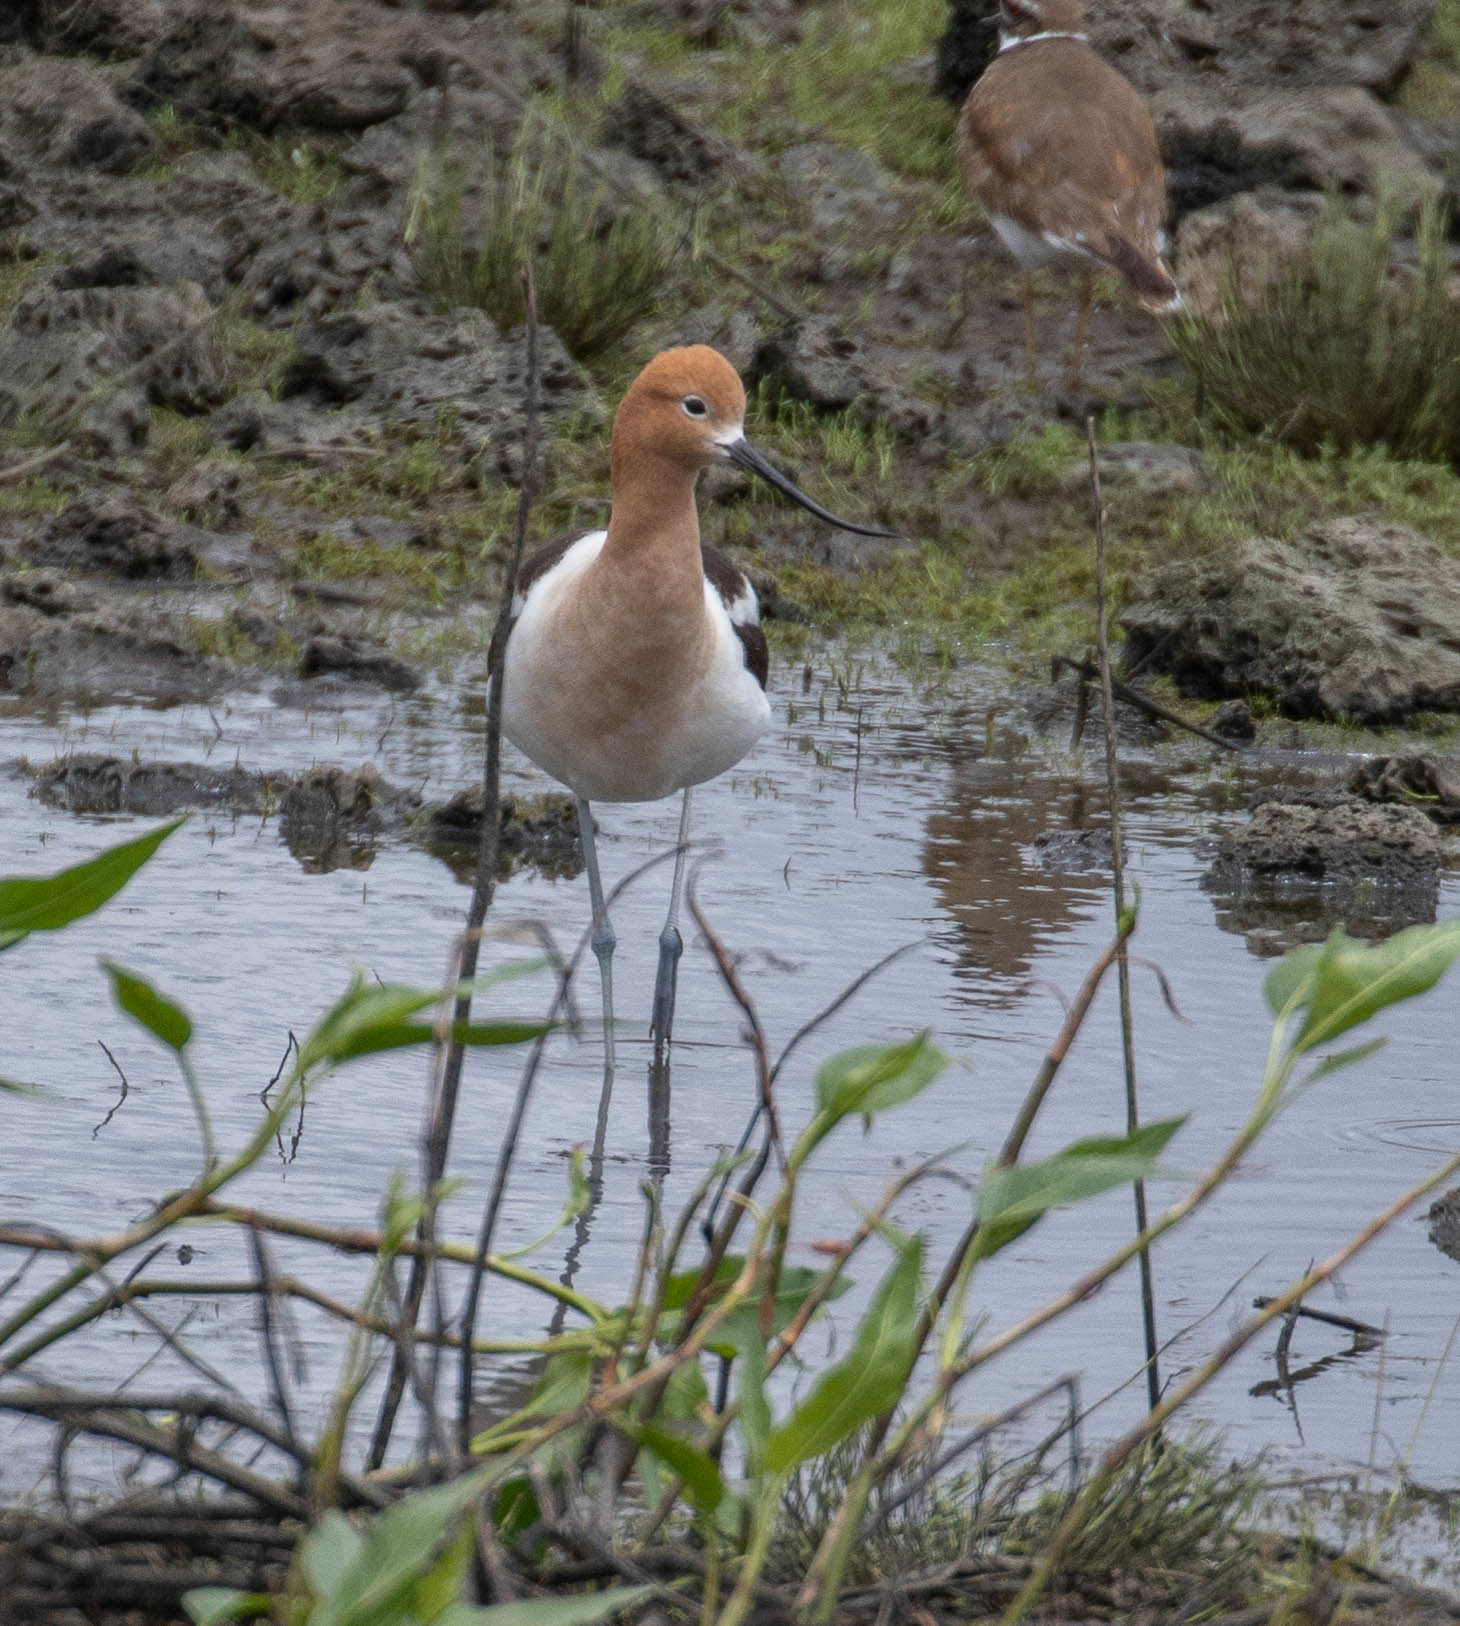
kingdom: Animalia
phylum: Chordata
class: Aves
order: Charadriiformes
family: Recurvirostridae
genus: Recurvirostra
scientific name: Recurvirostra americana
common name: American avocet
